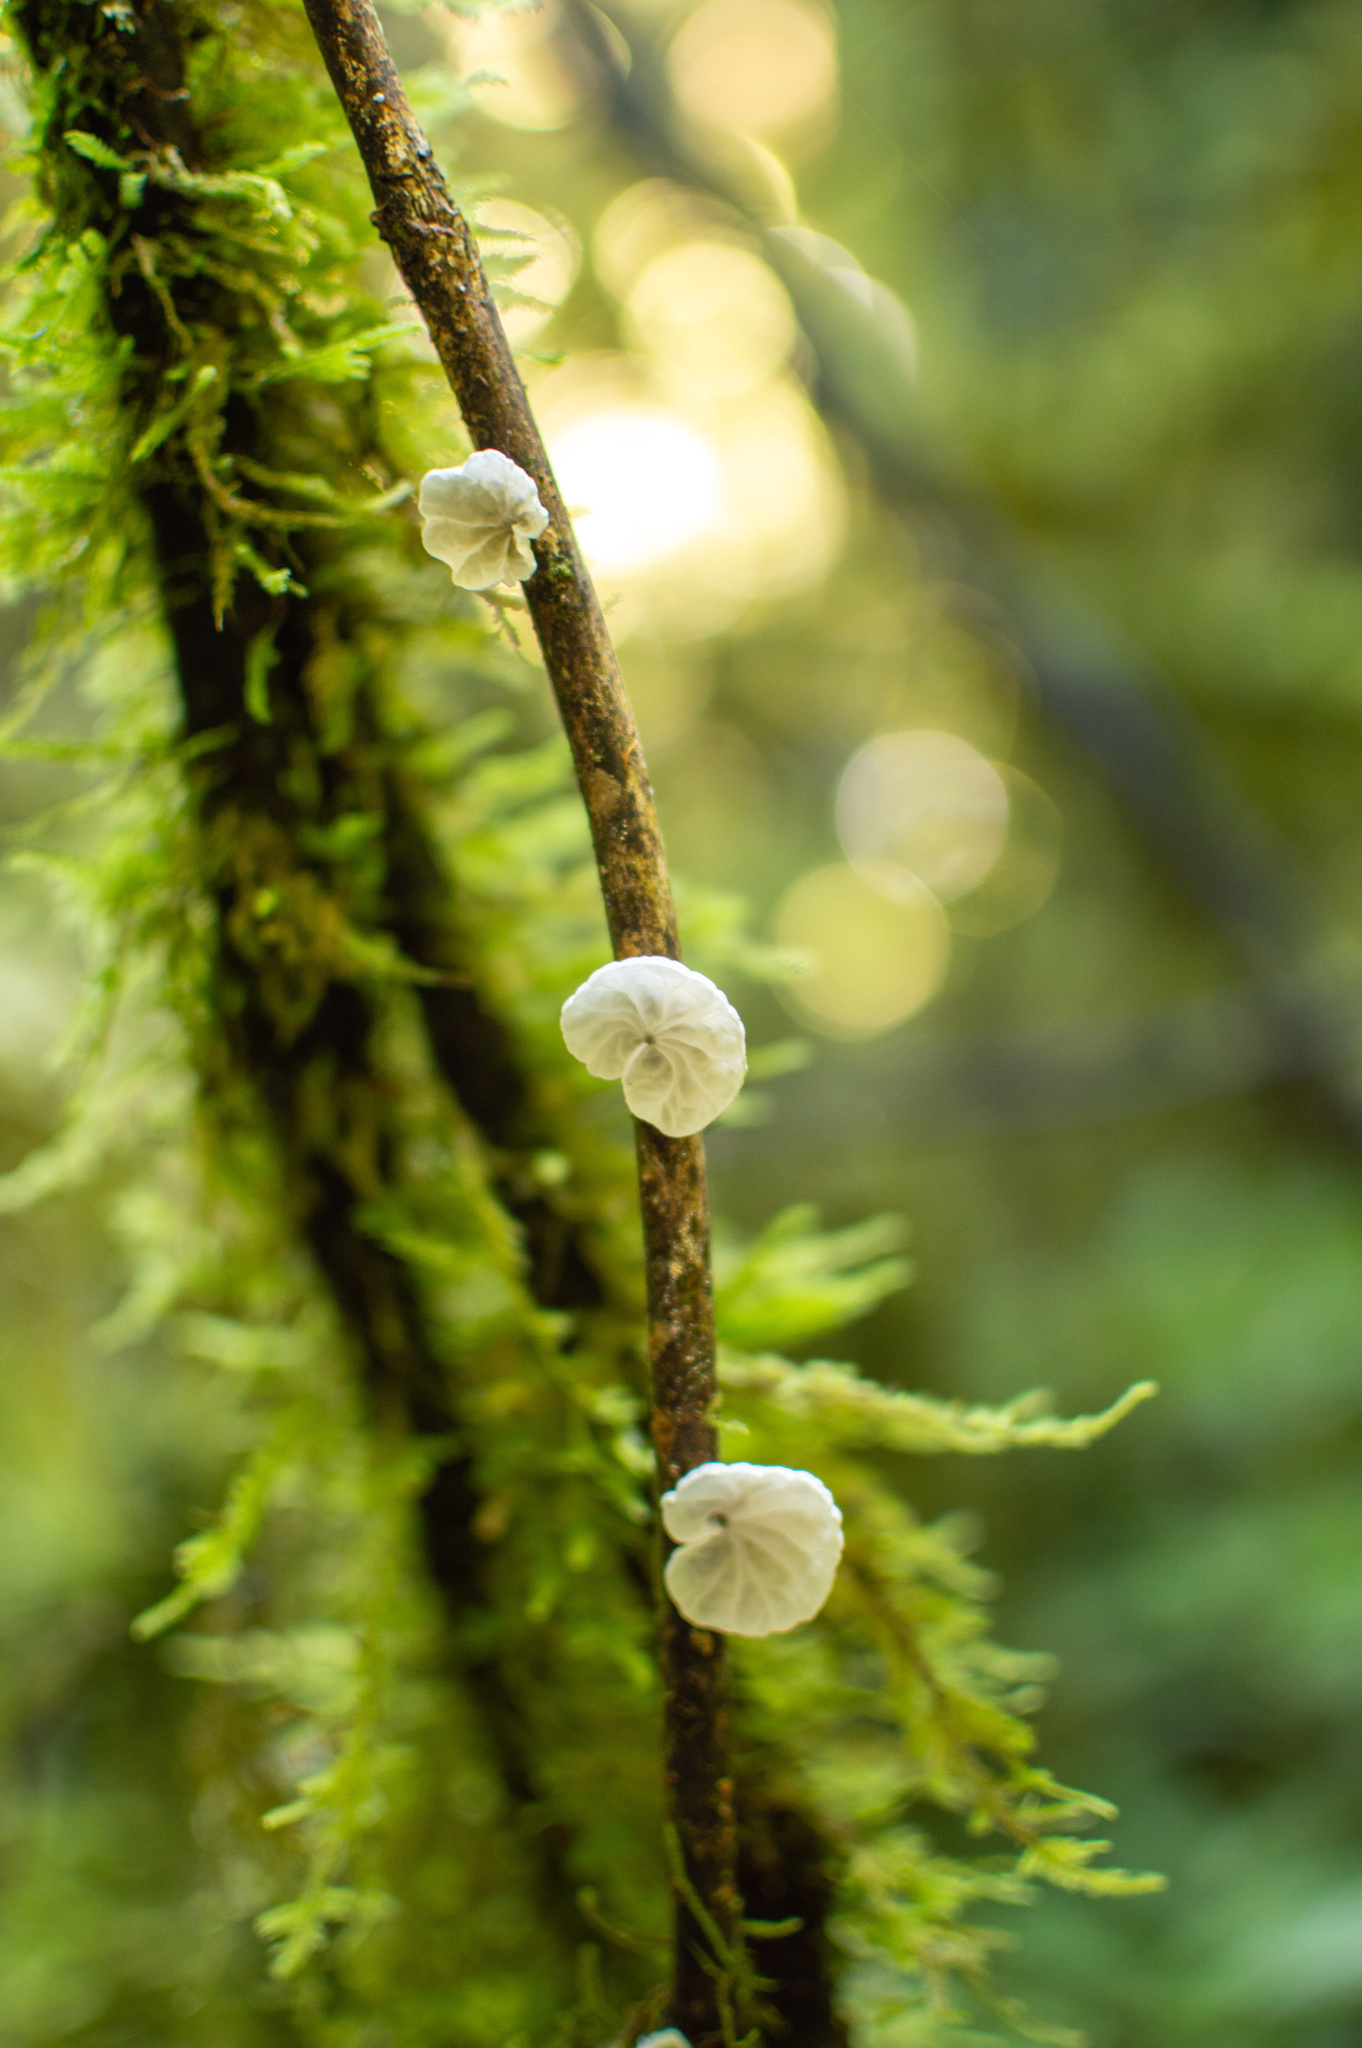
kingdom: Fungi
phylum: Basidiomycota
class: Agaricomycetes
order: Agaricales
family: Marasmiaceae
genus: Campanella
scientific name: Campanella tristis
